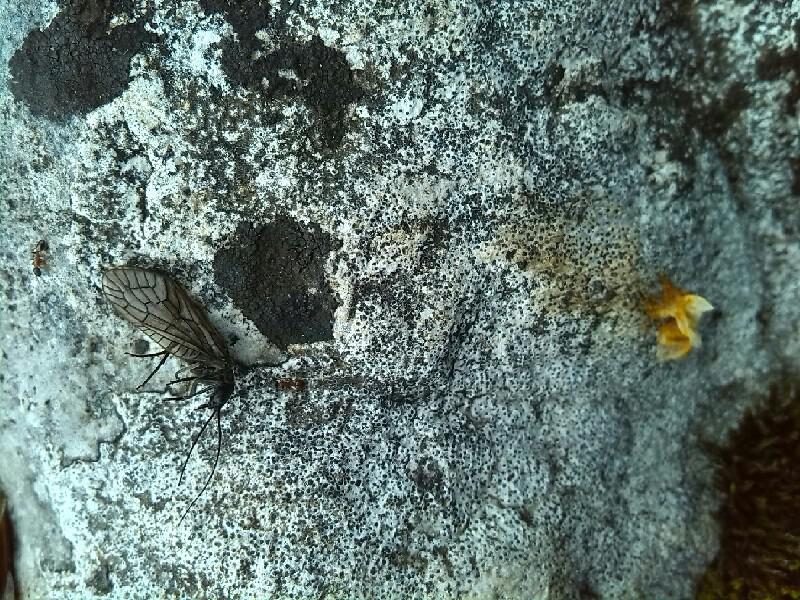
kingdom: Animalia
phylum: Arthropoda
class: Insecta
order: Megaloptera
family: Sialidae
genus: Sialis
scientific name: Sialis
